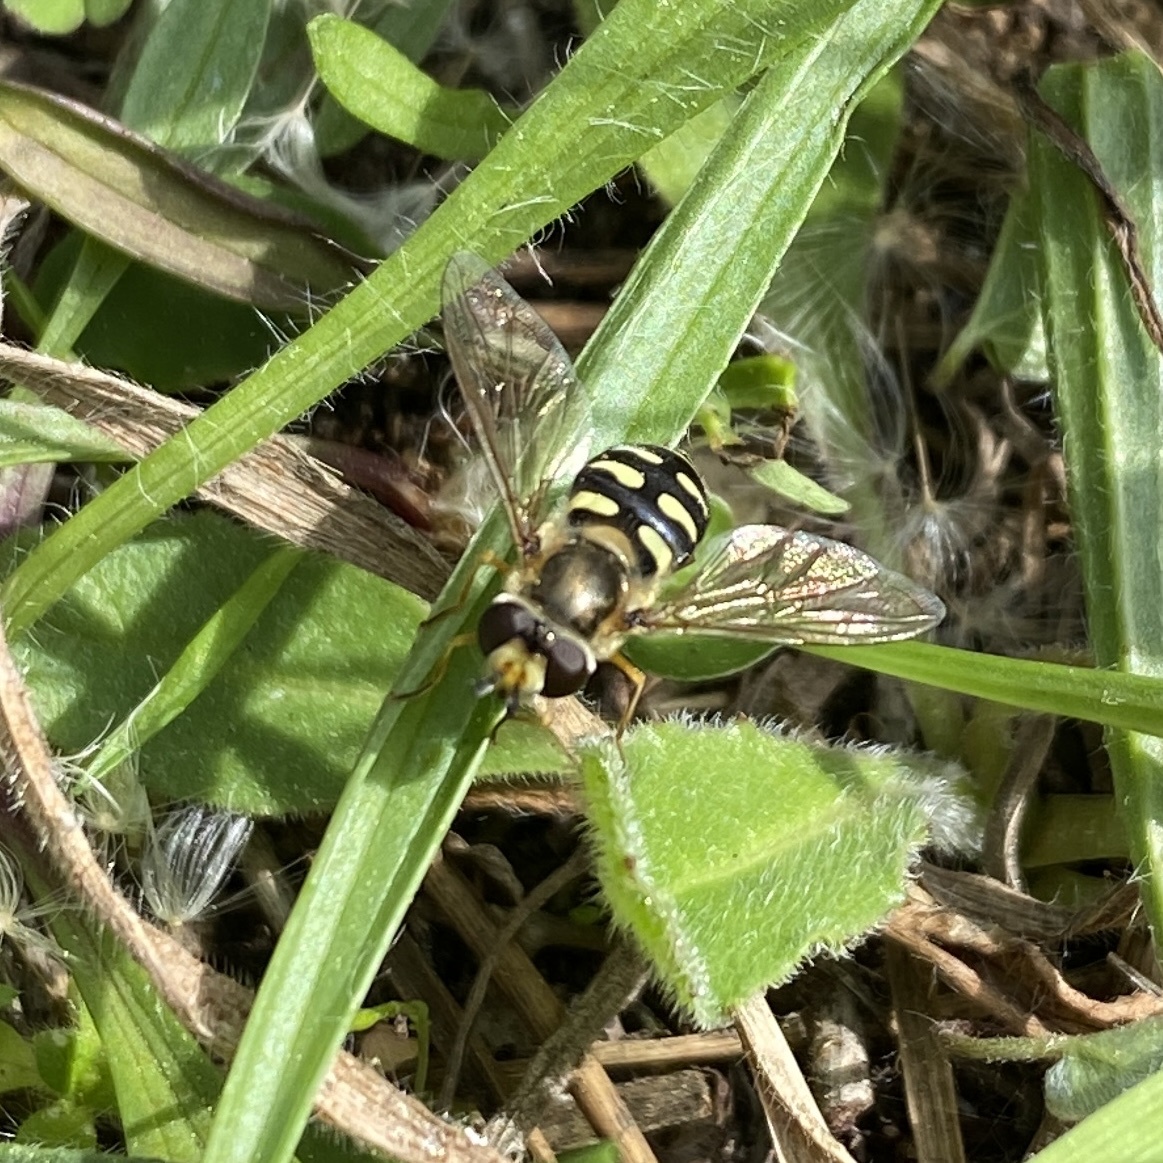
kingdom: Animalia
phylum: Arthropoda
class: Insecta
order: Diptera
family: Syrphidae
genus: Eupeodes
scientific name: Eupeodes corollae
